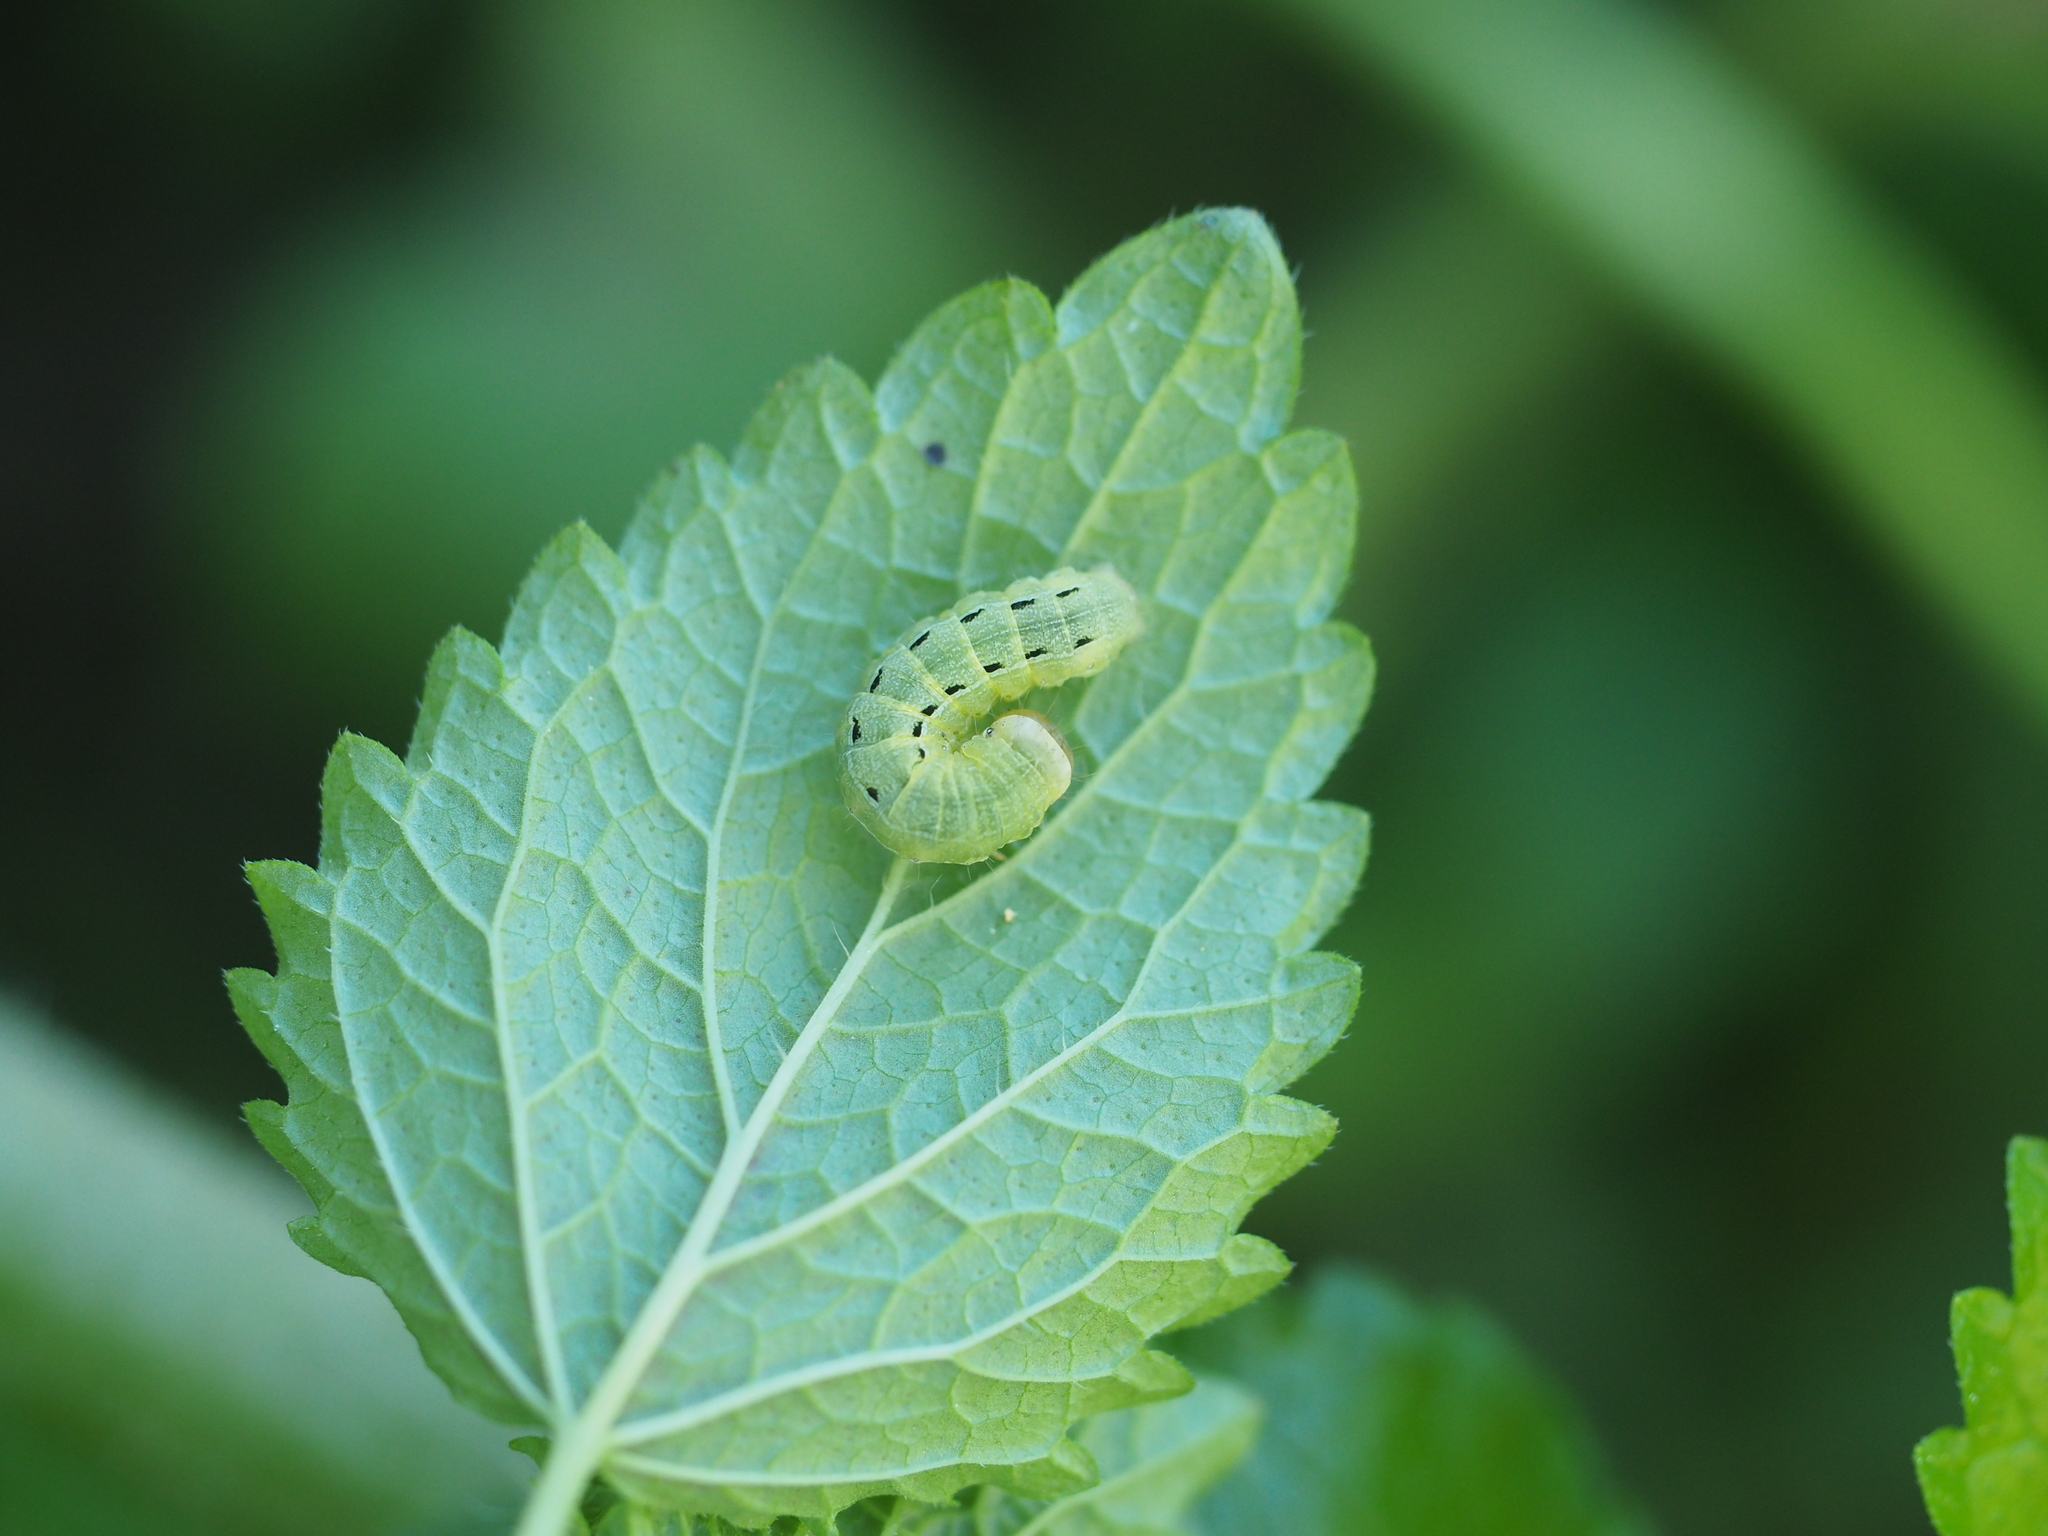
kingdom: Animalia
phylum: Arthropoda
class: Insecta
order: Lepidoptera
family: Noctuidae
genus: Noctua
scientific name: Noctua pronuba
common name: Large yellow underwing
